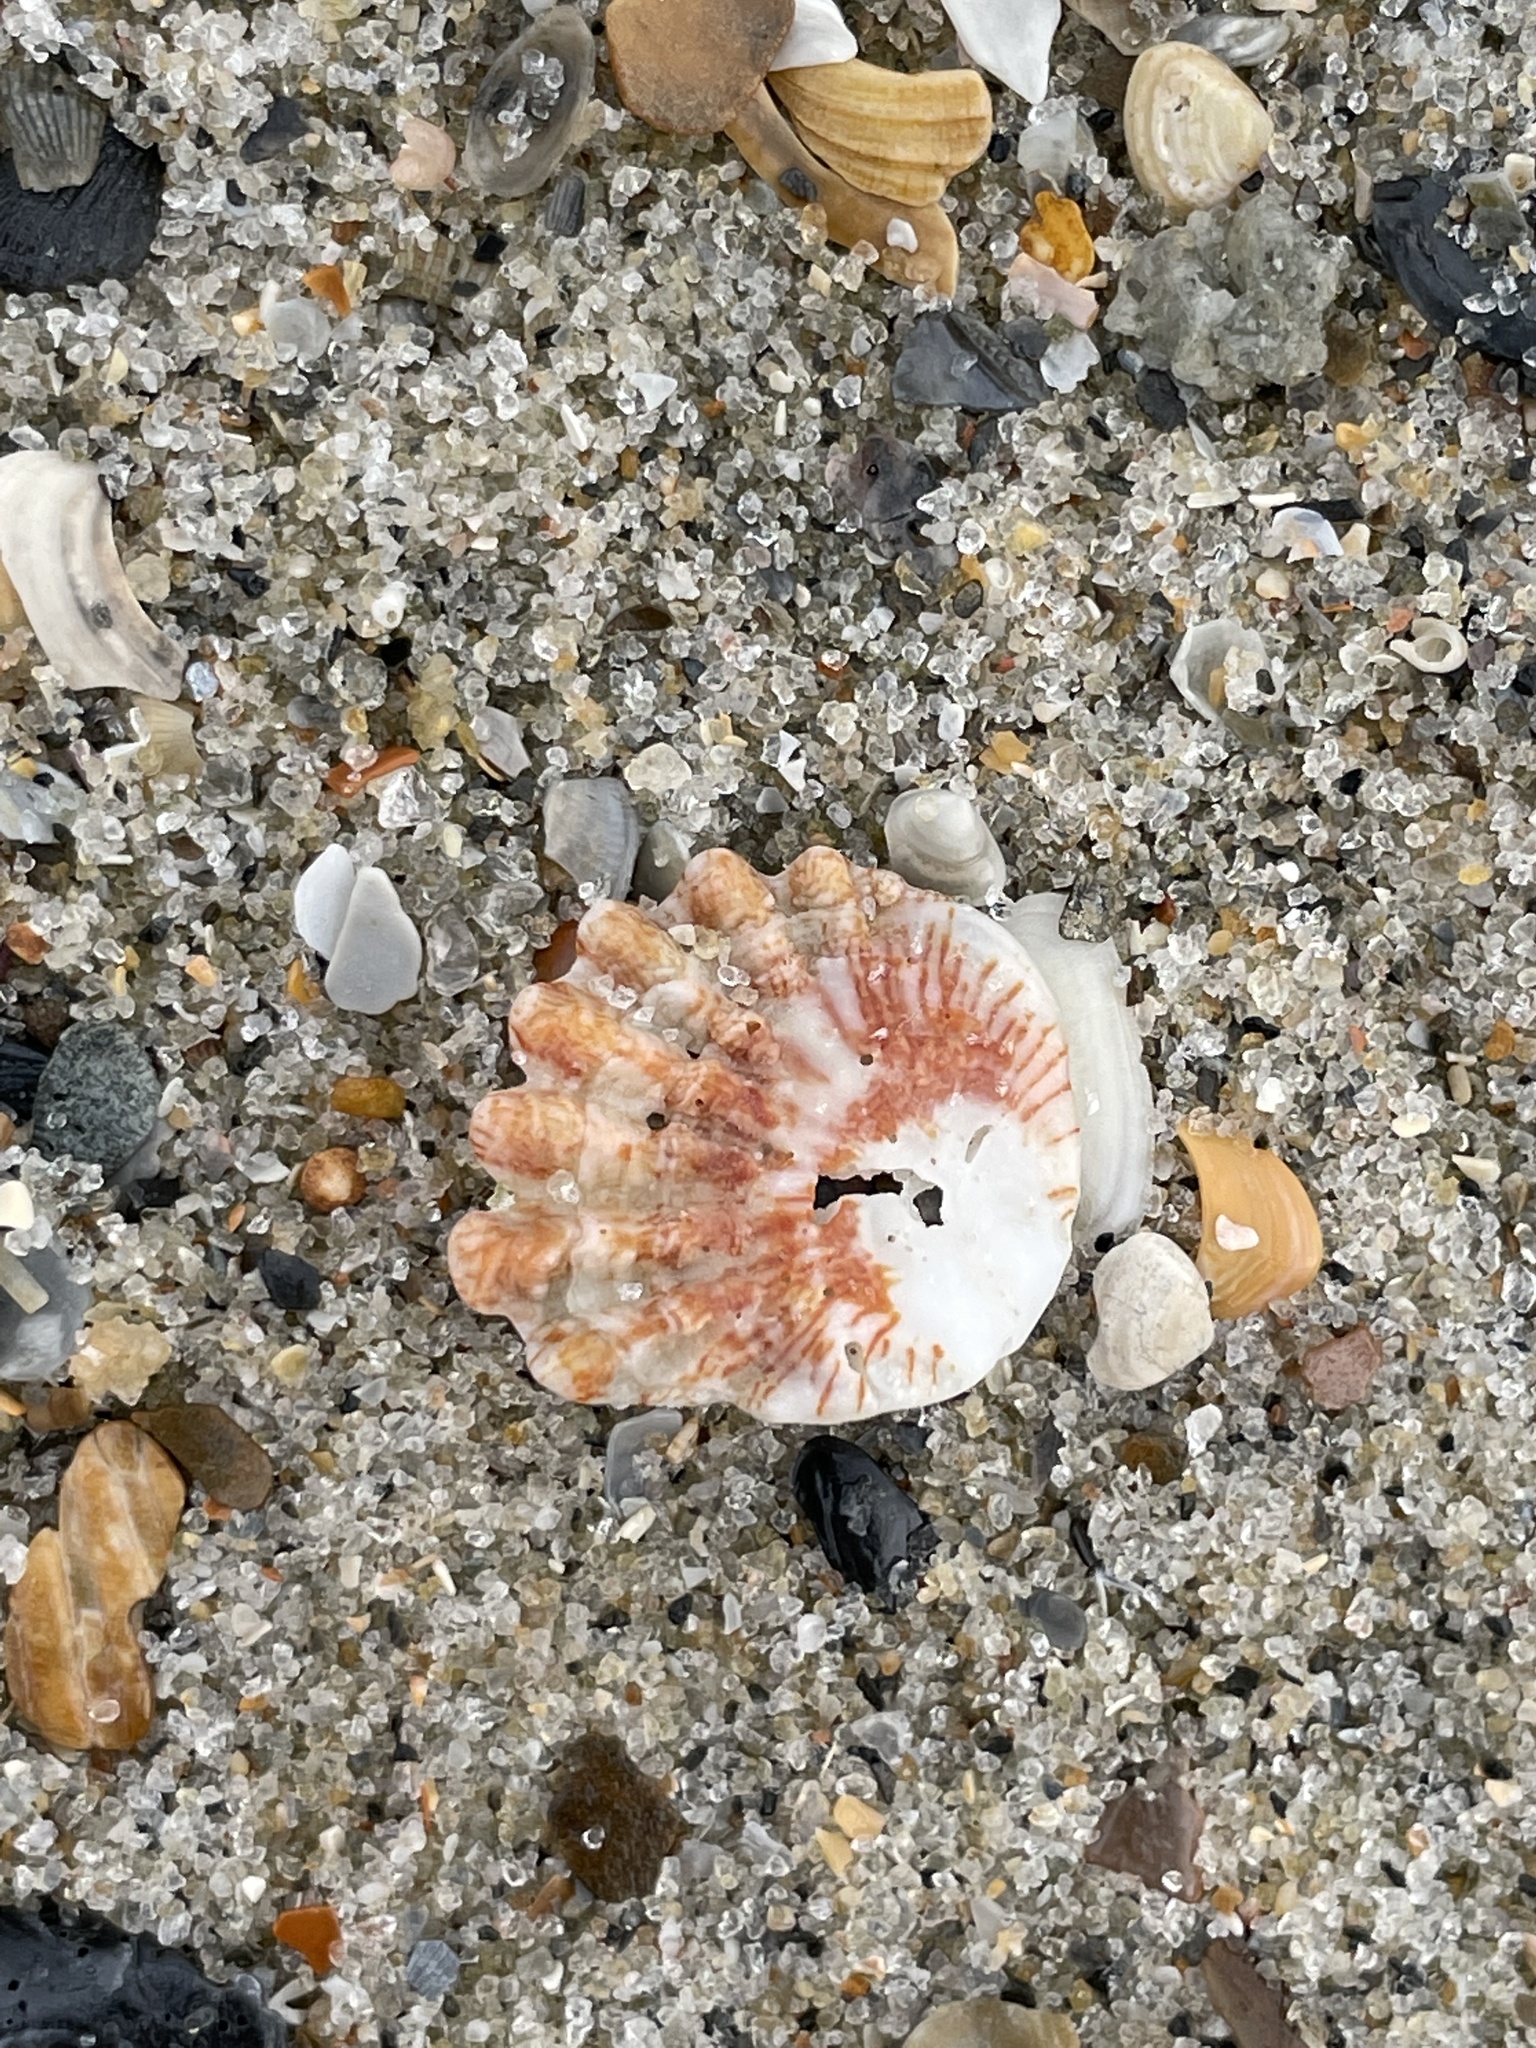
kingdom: Animalia
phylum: Mollusca
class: Bivalvia
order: Pectinida
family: Plicatulidae
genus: Plicatula
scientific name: Plicatula gibbosa
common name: Atlantic kitten's paw
